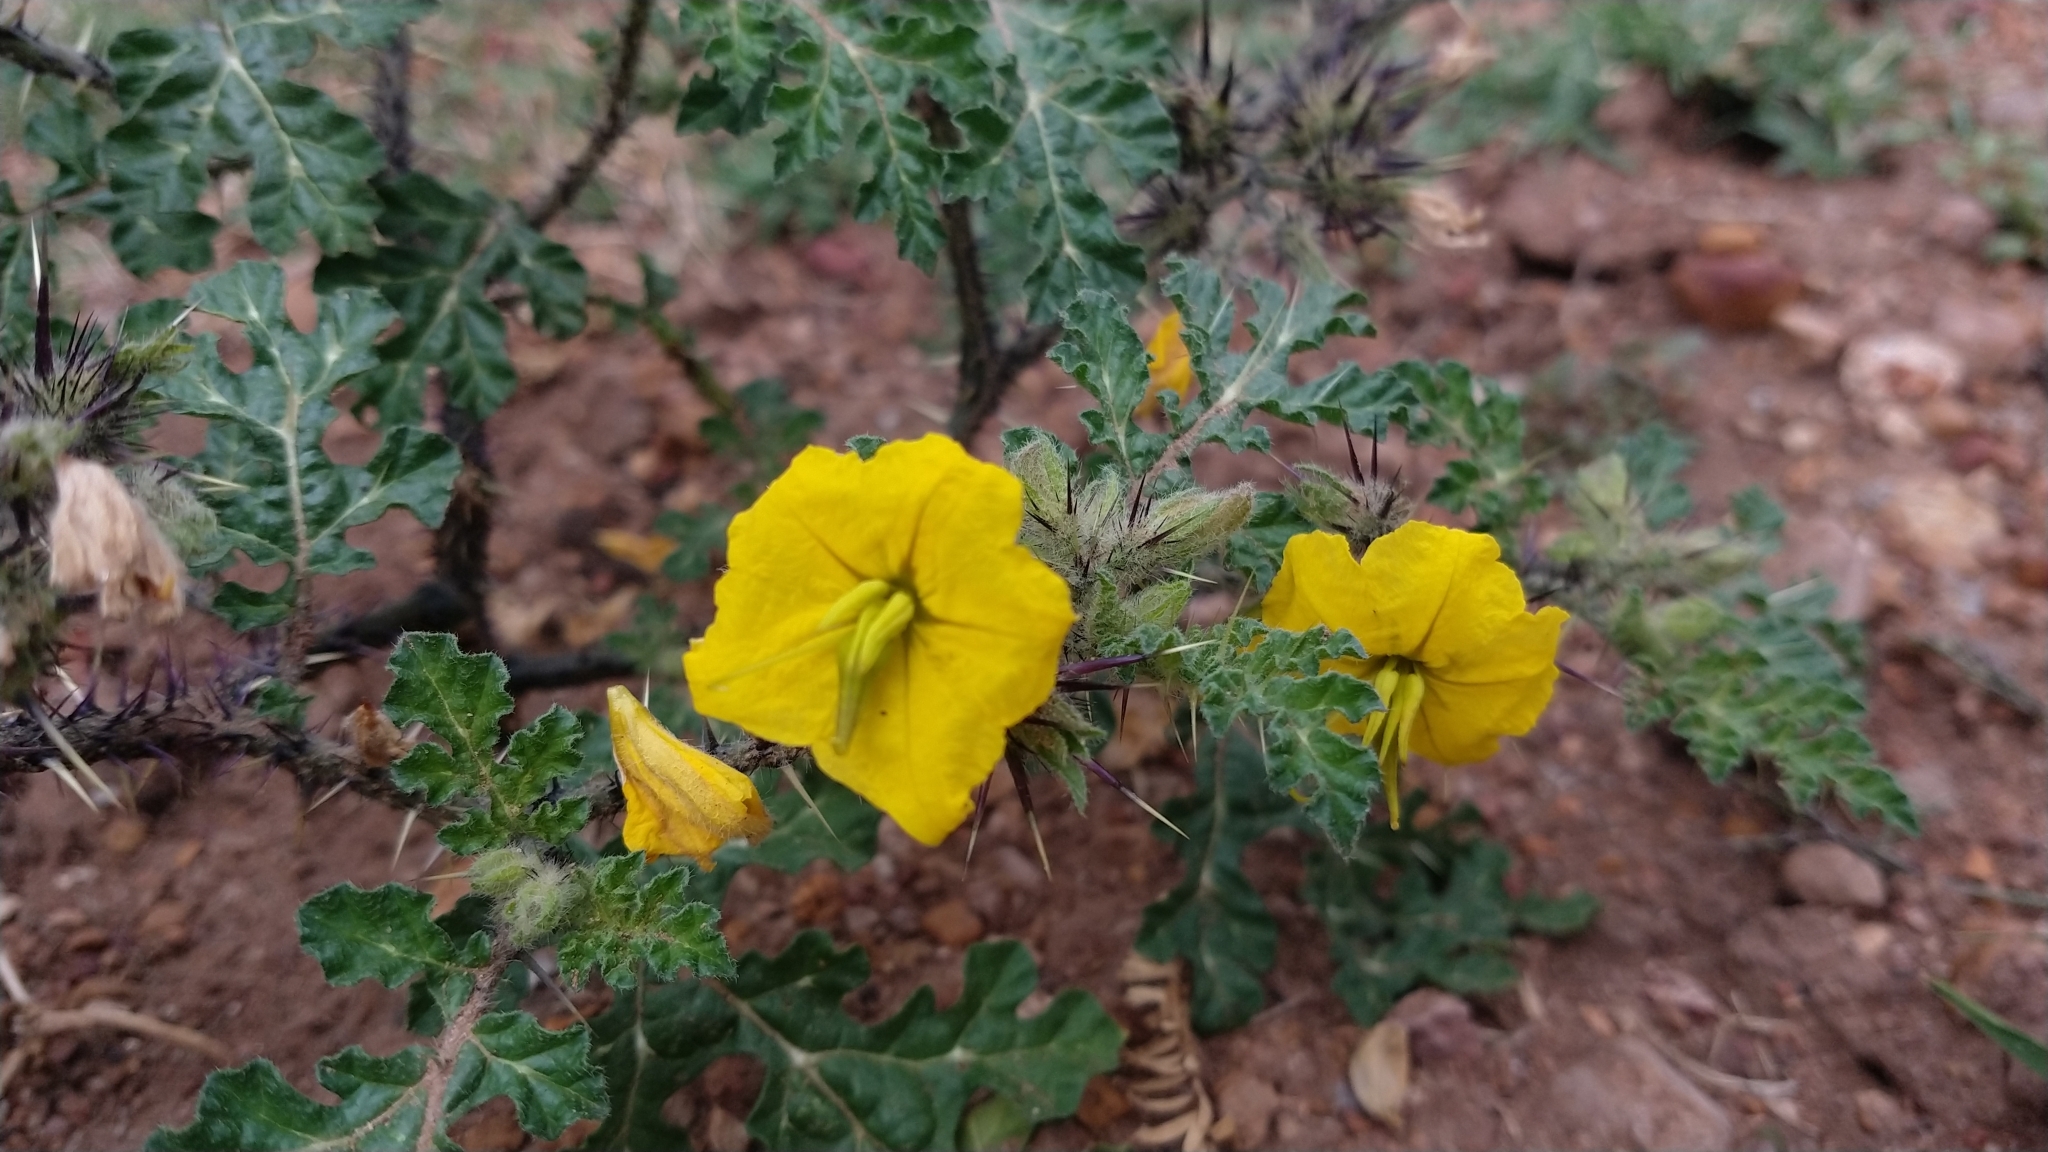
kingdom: Plantae
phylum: Tracheophyta
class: Magnoliopsida
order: Solanales
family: Solanaceae
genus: Solanum
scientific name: Solanum angustifolium
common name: Buffalobur nightshade
